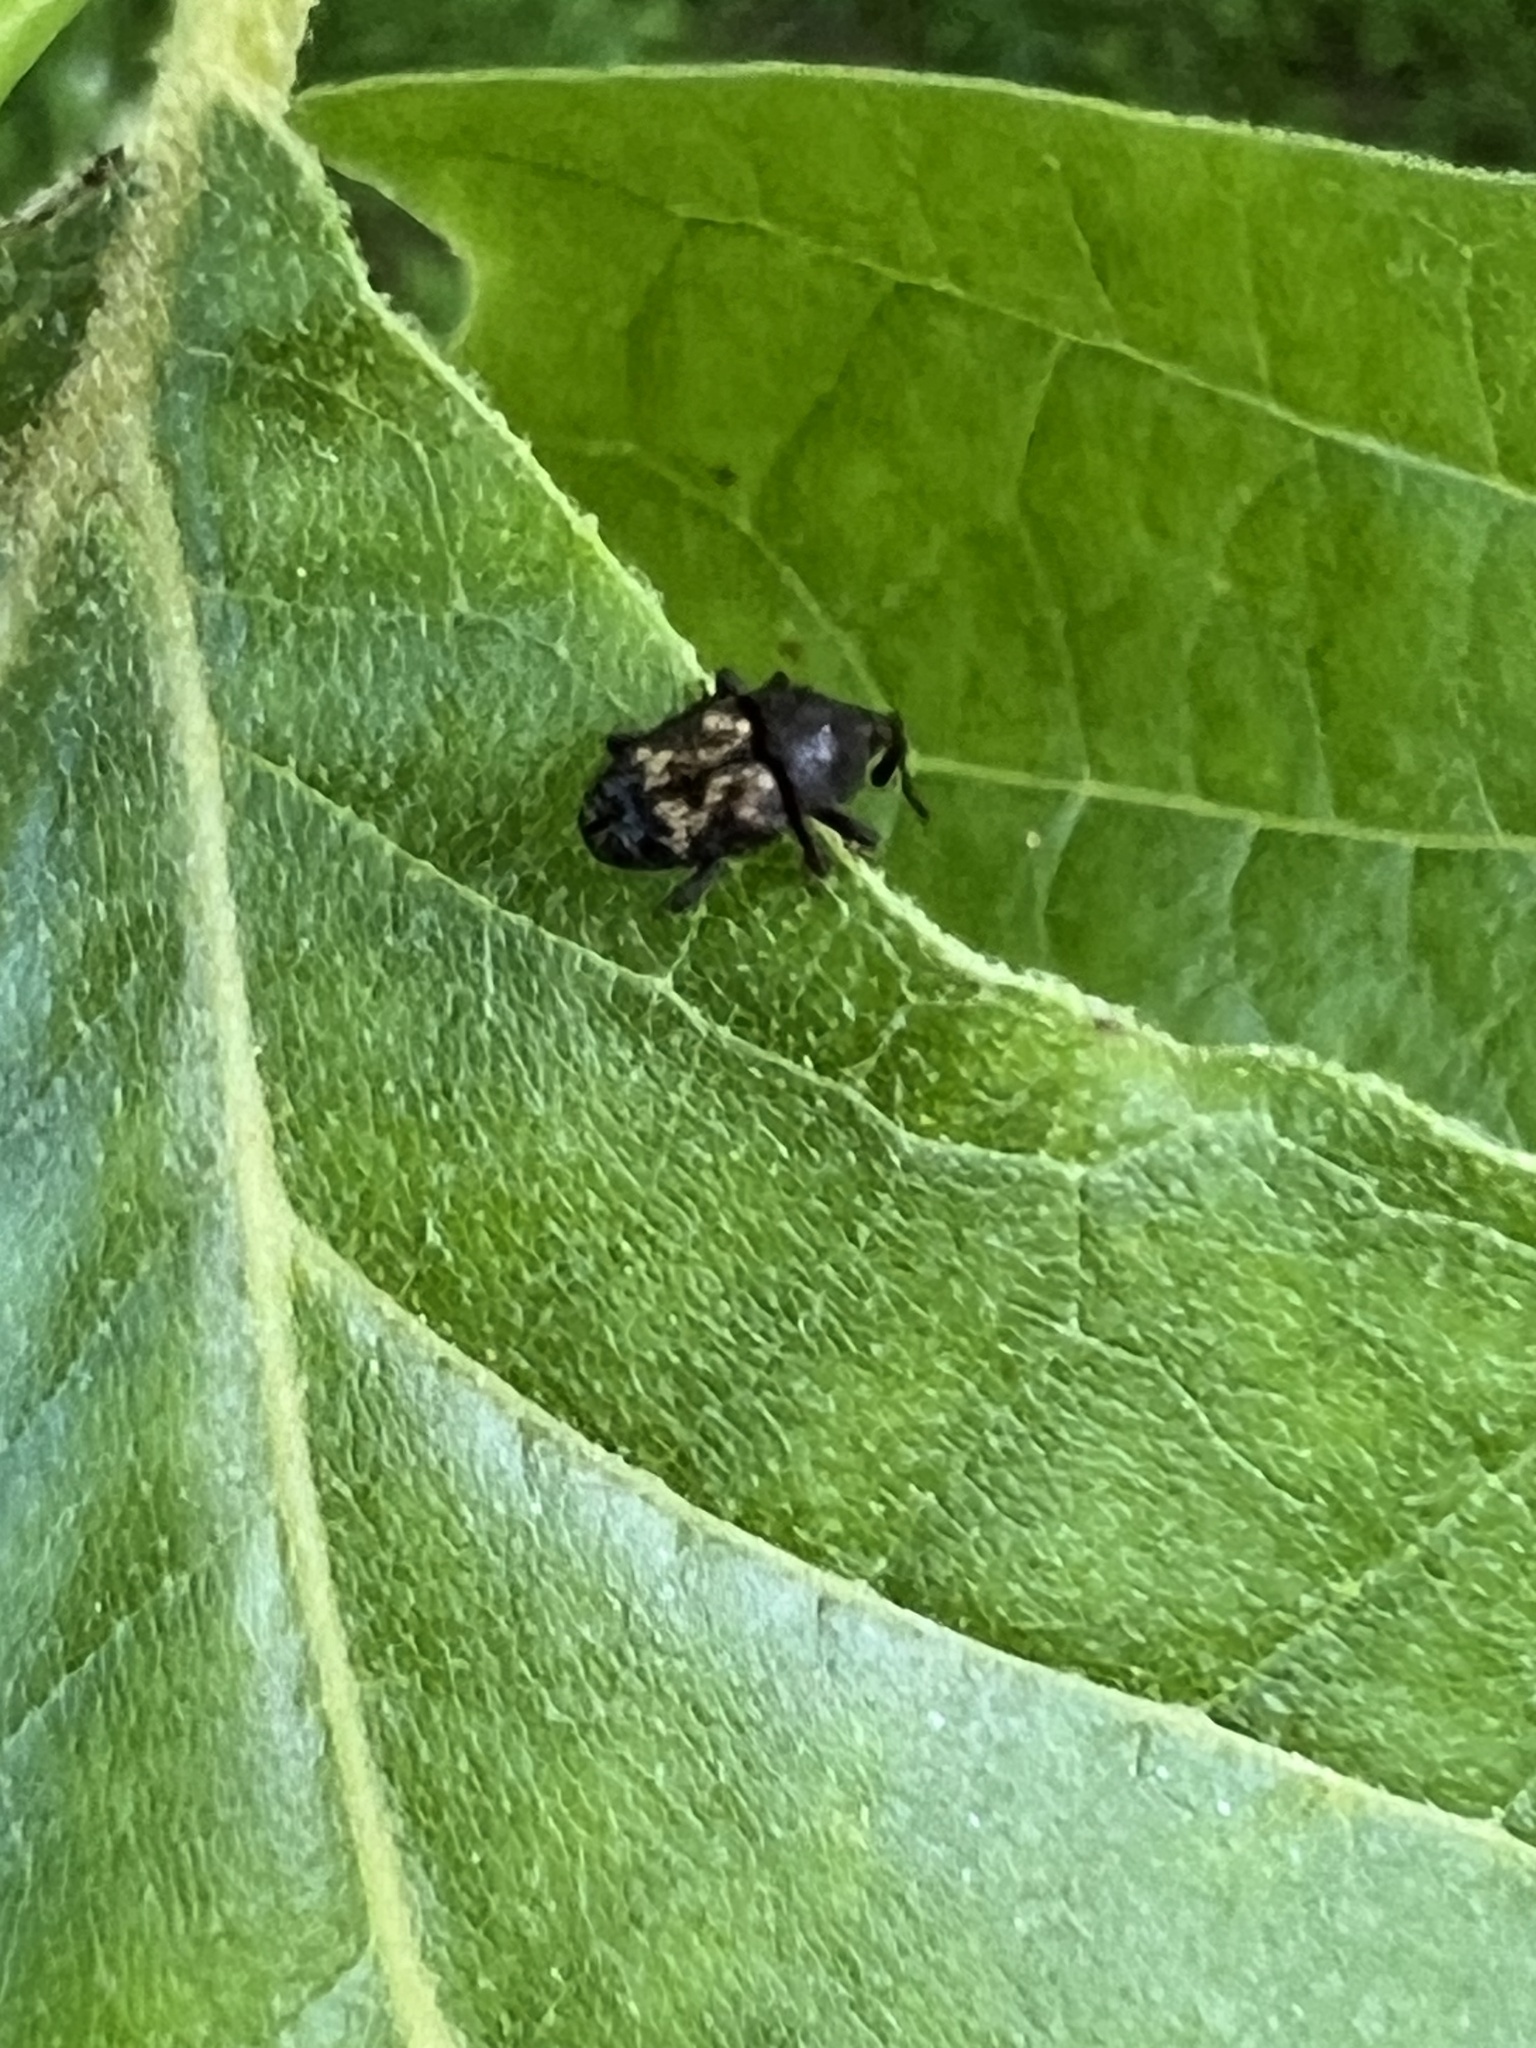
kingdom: Animalia
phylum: Arthropoda
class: Insecta
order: Coleoptera
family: Curculionidae
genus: Glyptobaris
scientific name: Glyptobaris lecontei
